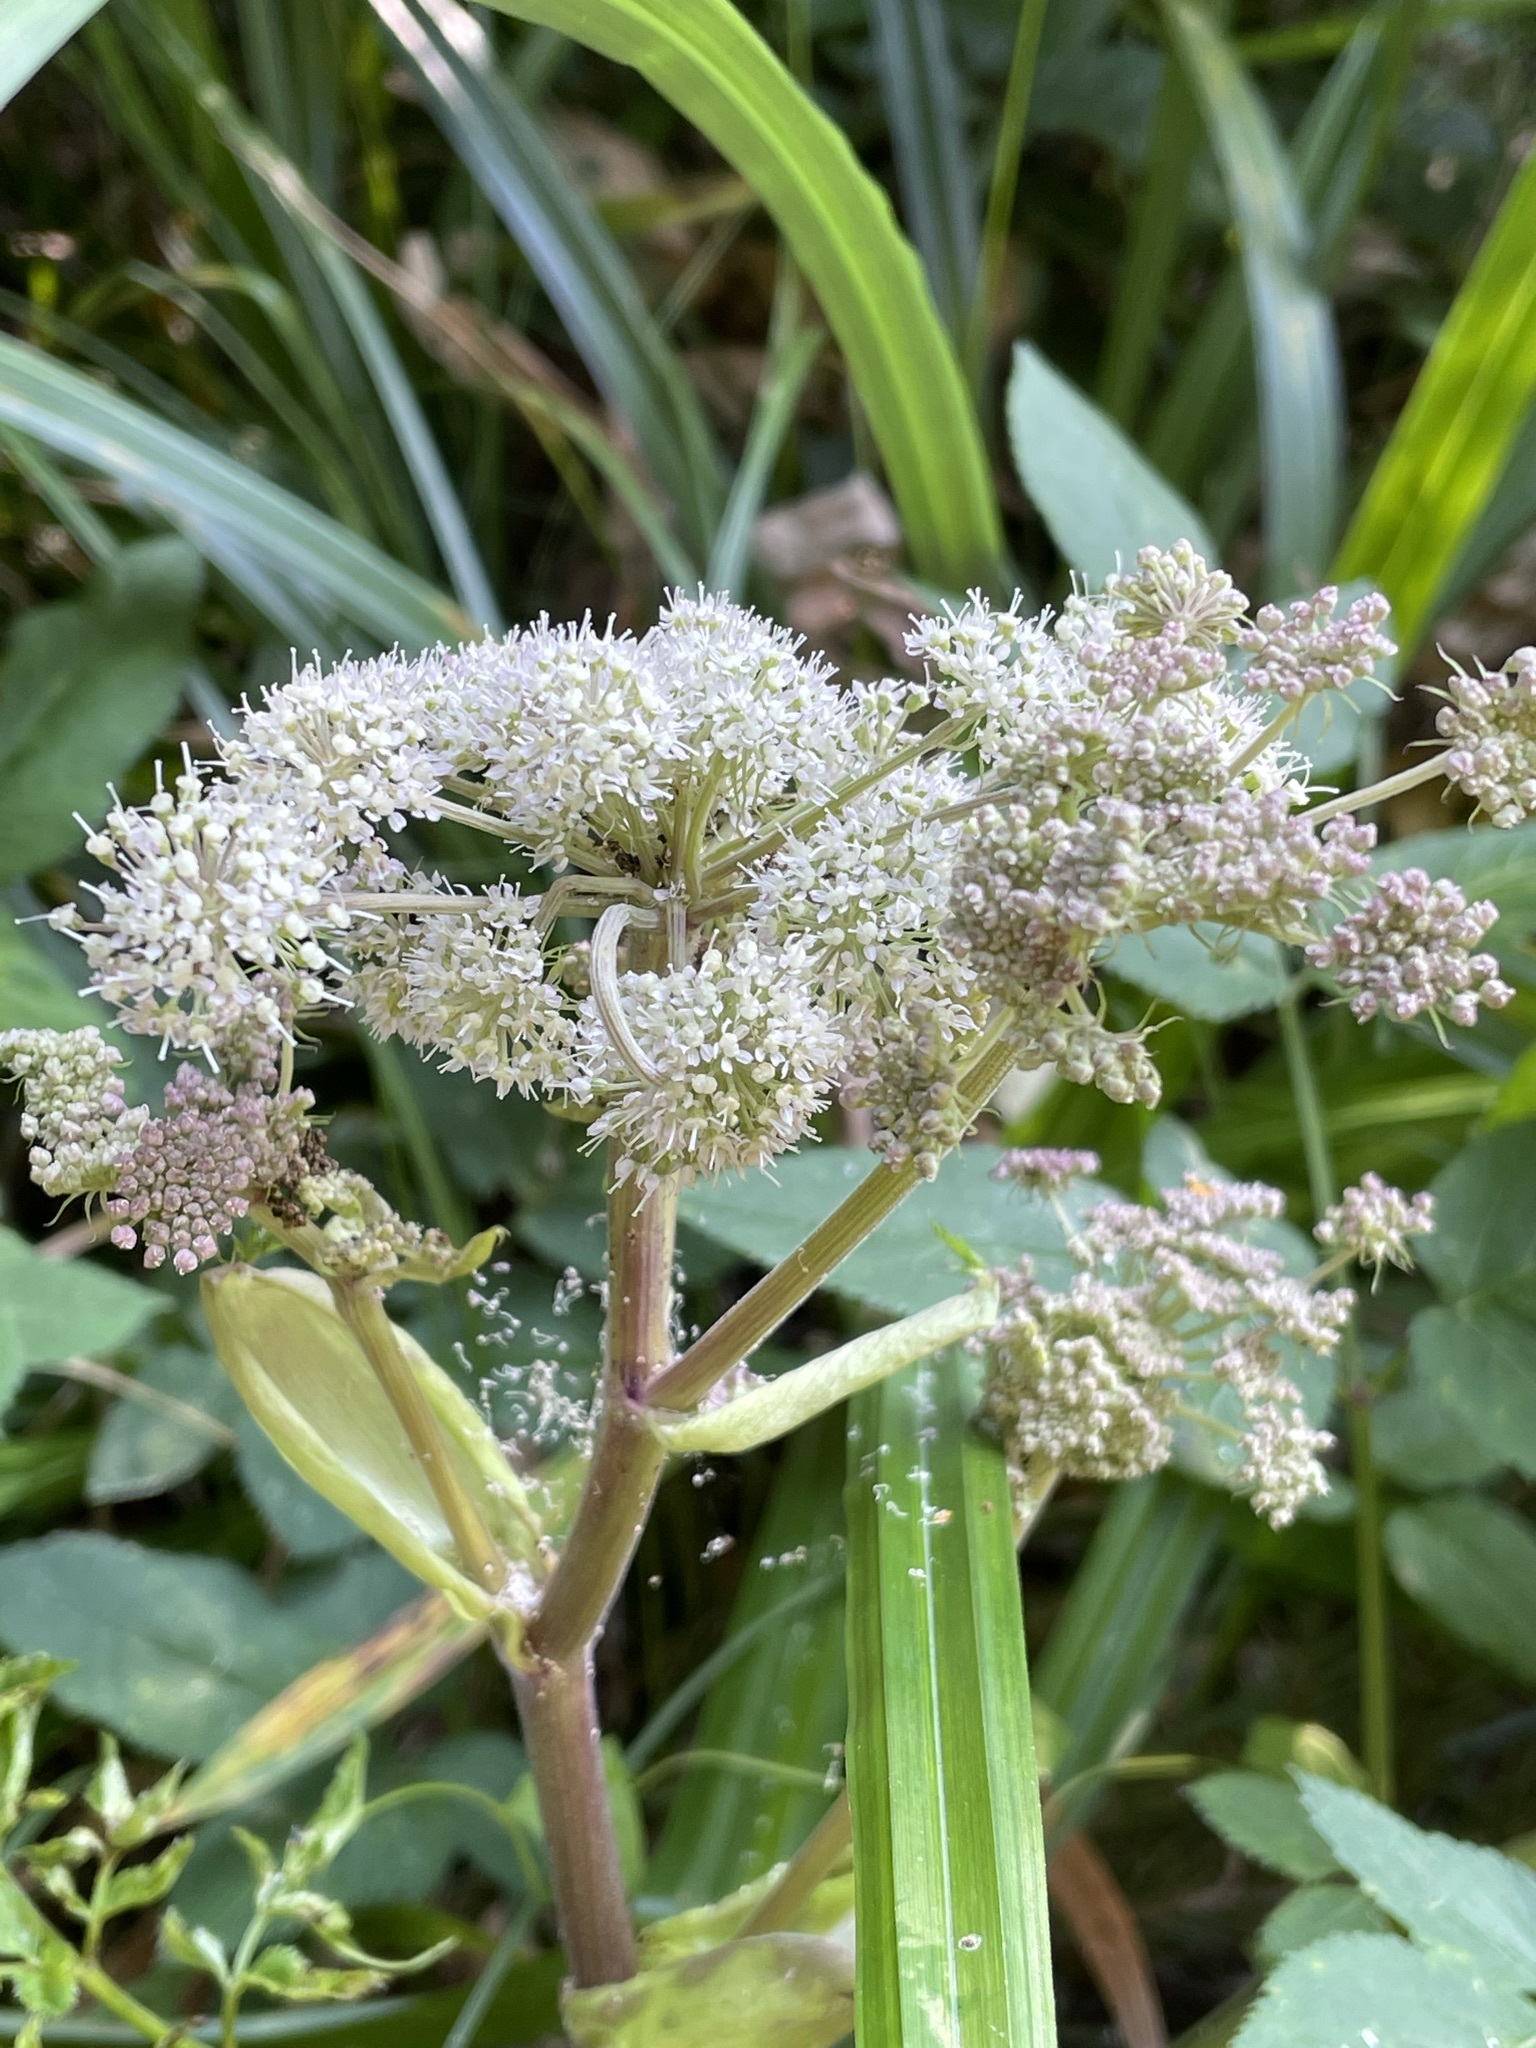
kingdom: Plantae
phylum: Tracheophyta
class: Magnoliopsida
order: Apiales
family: Apiaceae
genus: Angelica
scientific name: Angelica sylvestris
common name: Wild angelica
